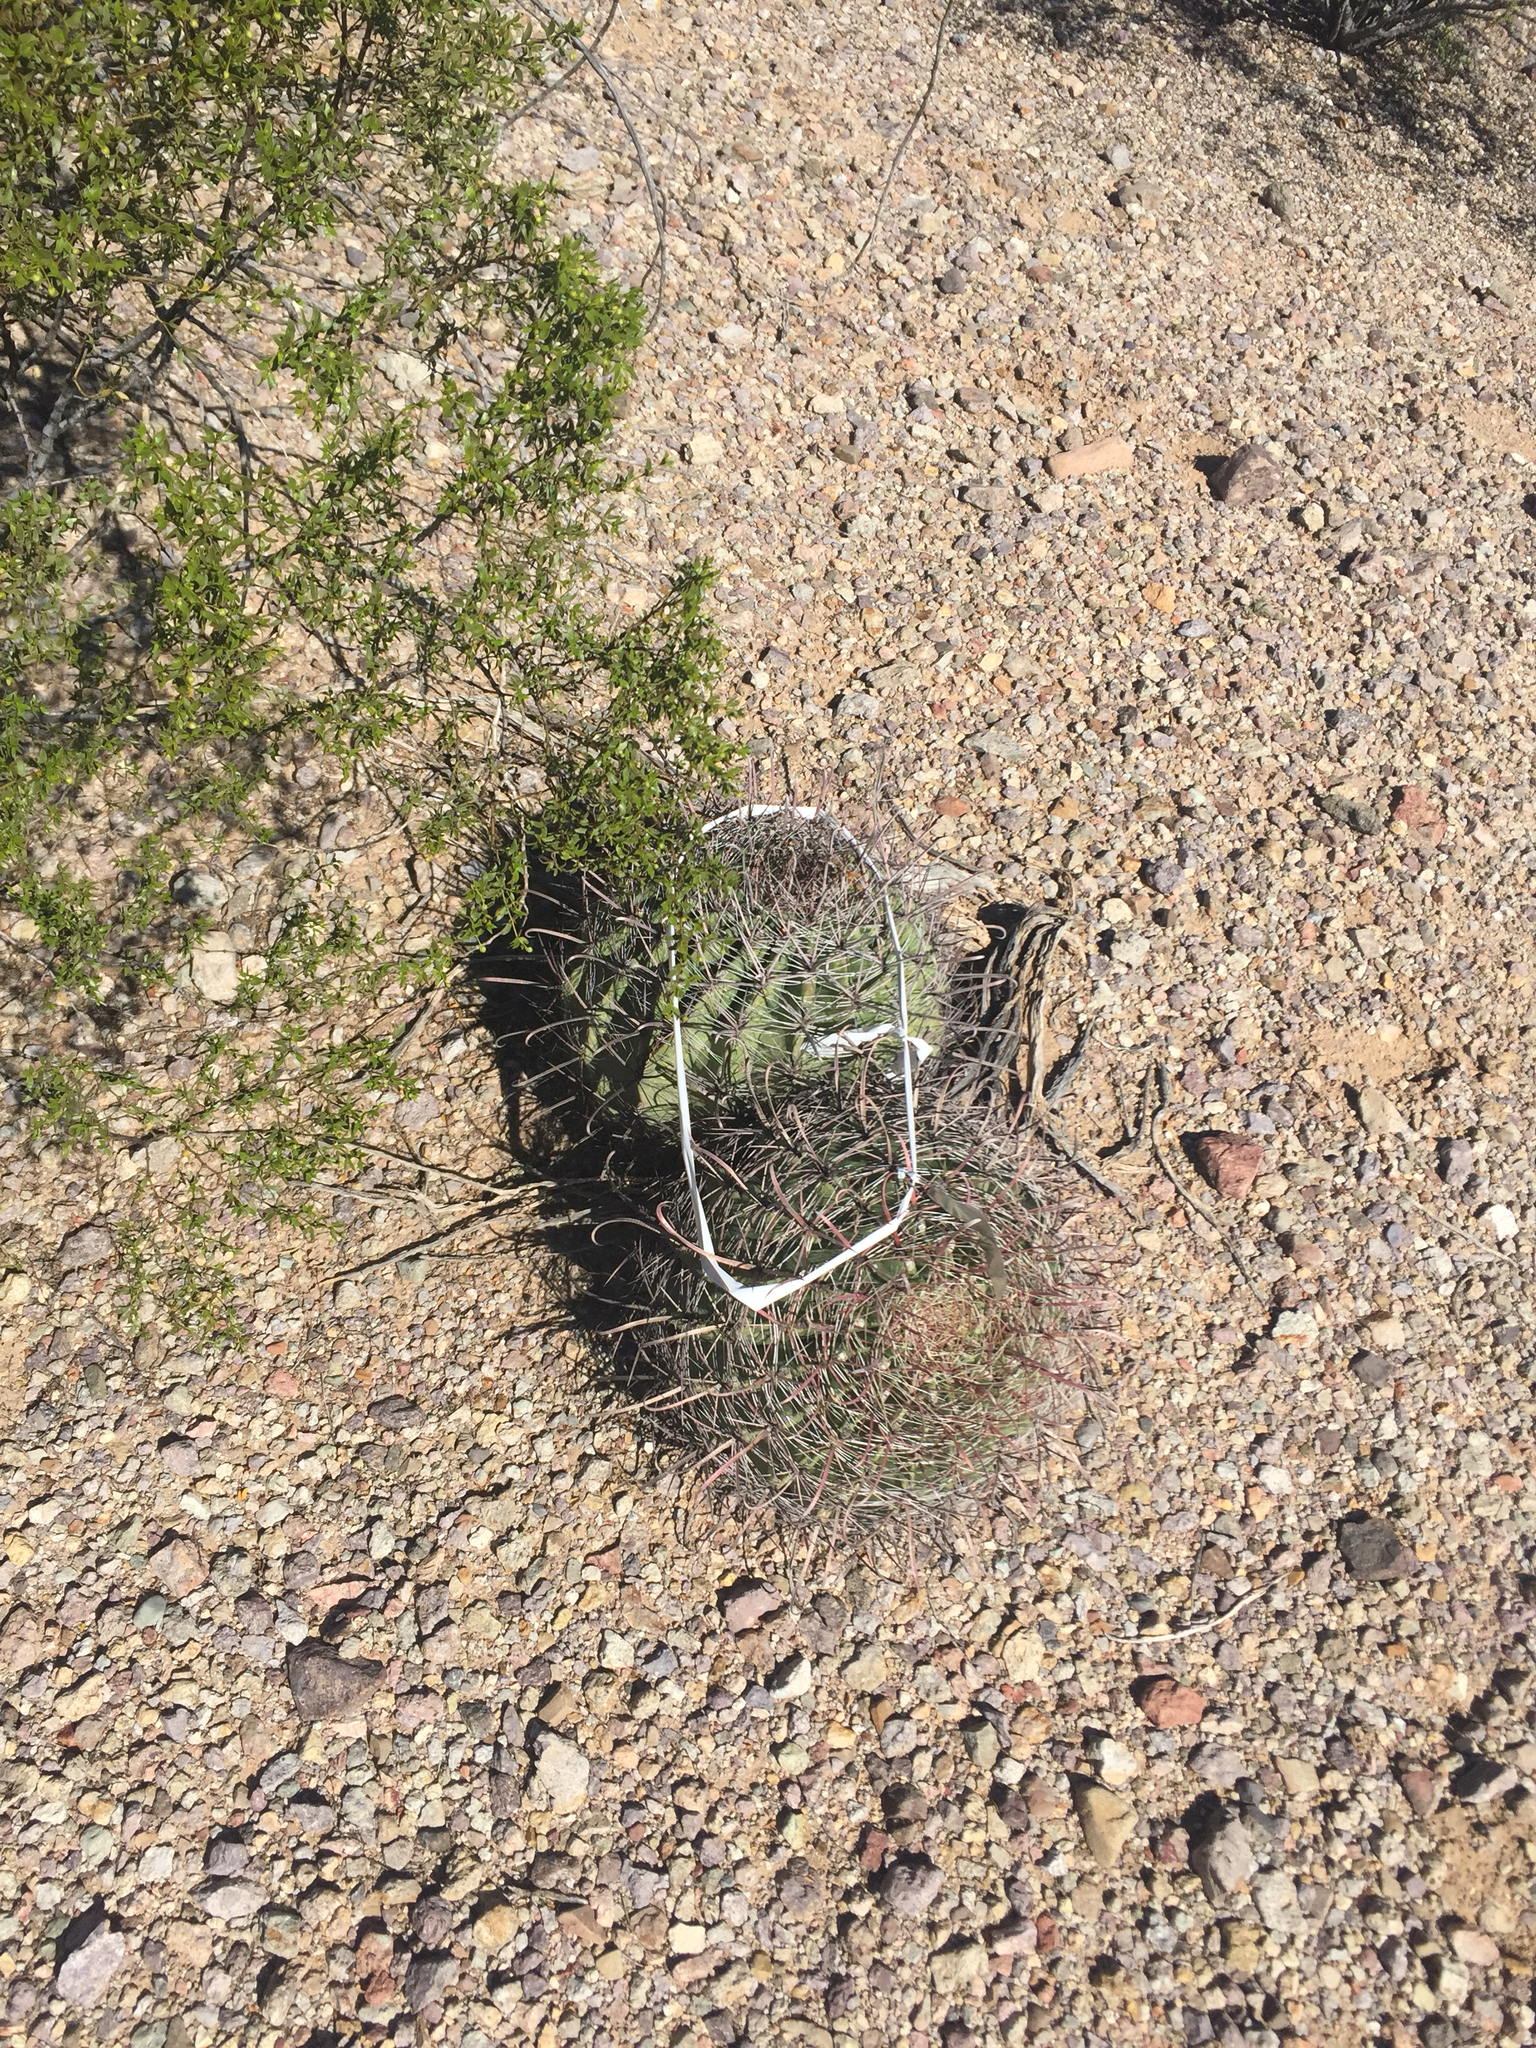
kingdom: Plantae
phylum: Tracheophyta
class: Magnoliopsida
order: Caryophyllales
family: Cactaceae
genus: Ferocactus
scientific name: Ferocactus wislizeni
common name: Candy barrel cactus
